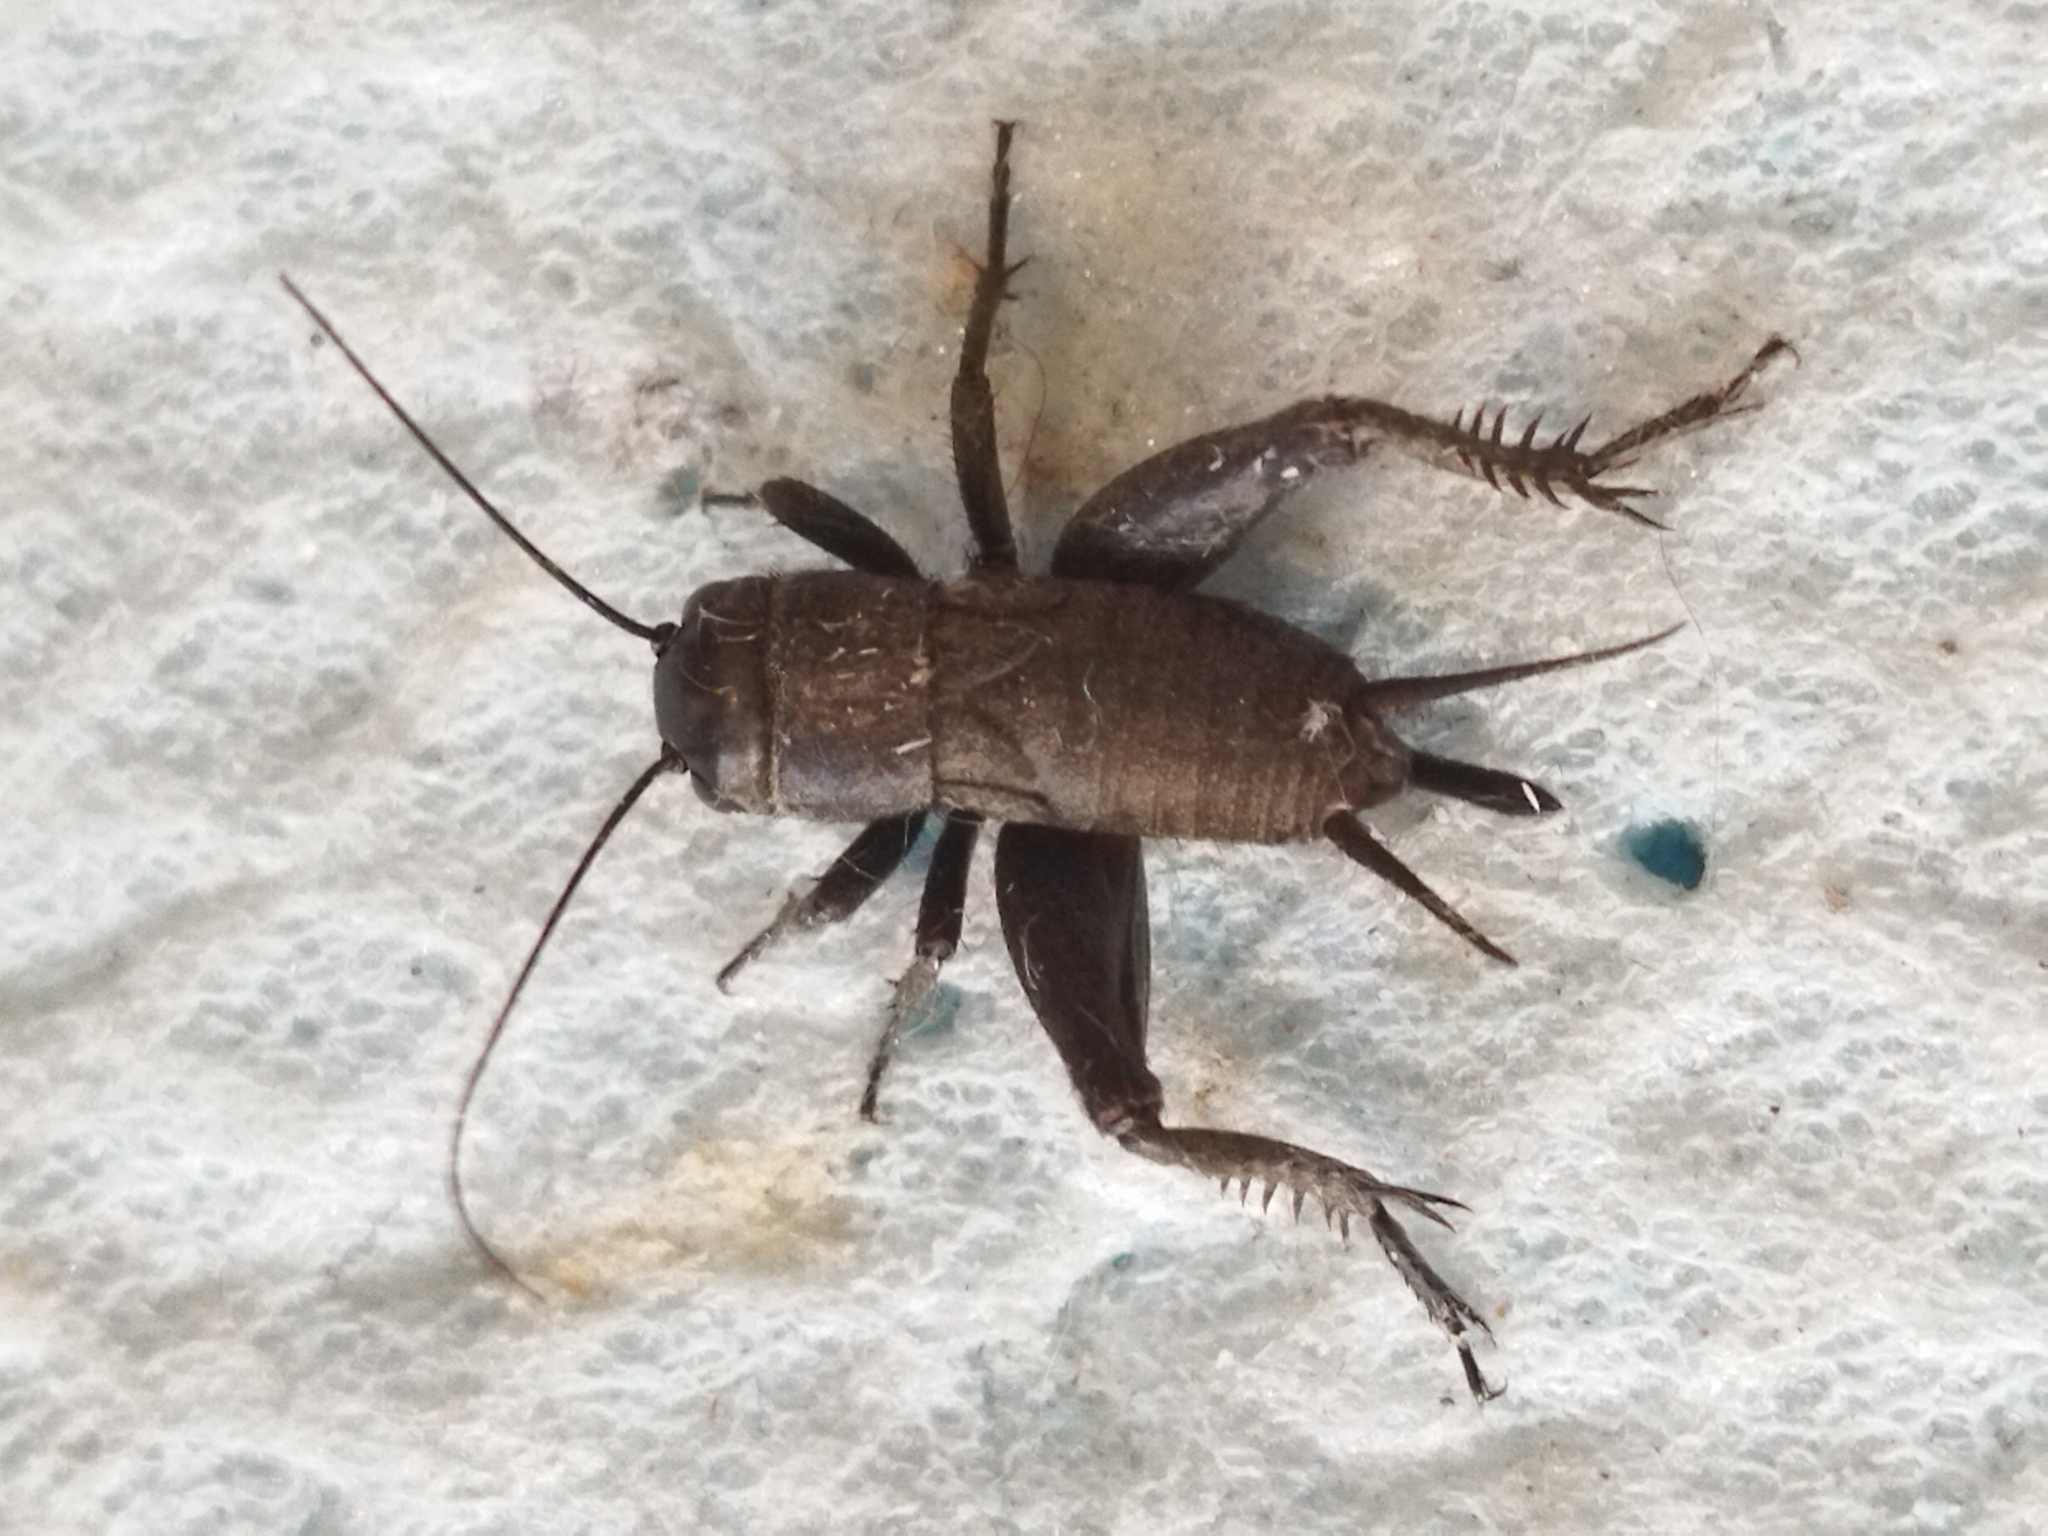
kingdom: Animalia
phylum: Arthropoda
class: Insecta
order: Orthoptera
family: Gryllidae
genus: Melanogryllus
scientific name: Melanogryllus desertus
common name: Desert cricket
